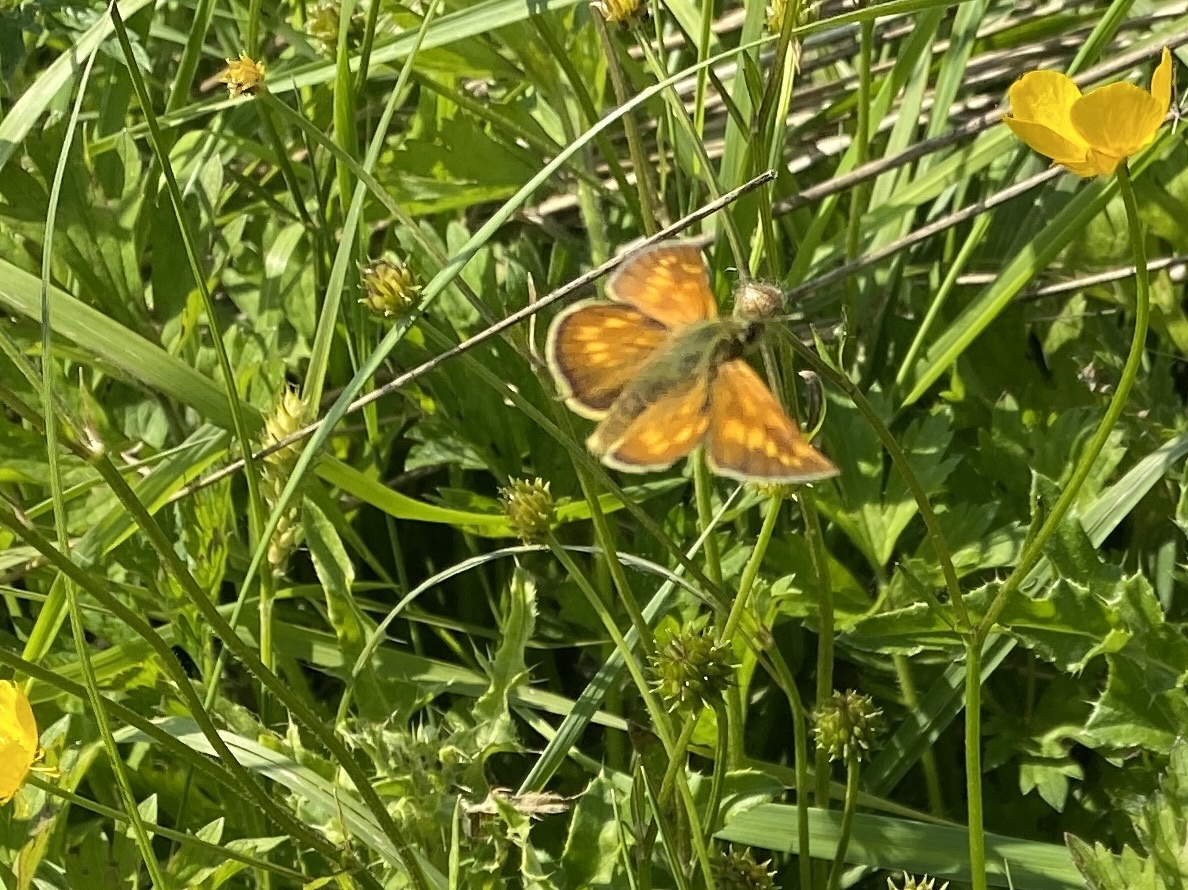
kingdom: Animalia
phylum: Arthropoda
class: Insecta
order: Lepidoptera
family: Hesperiidae
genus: Ochlodes
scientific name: Ochlodes venata
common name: Large skipper
